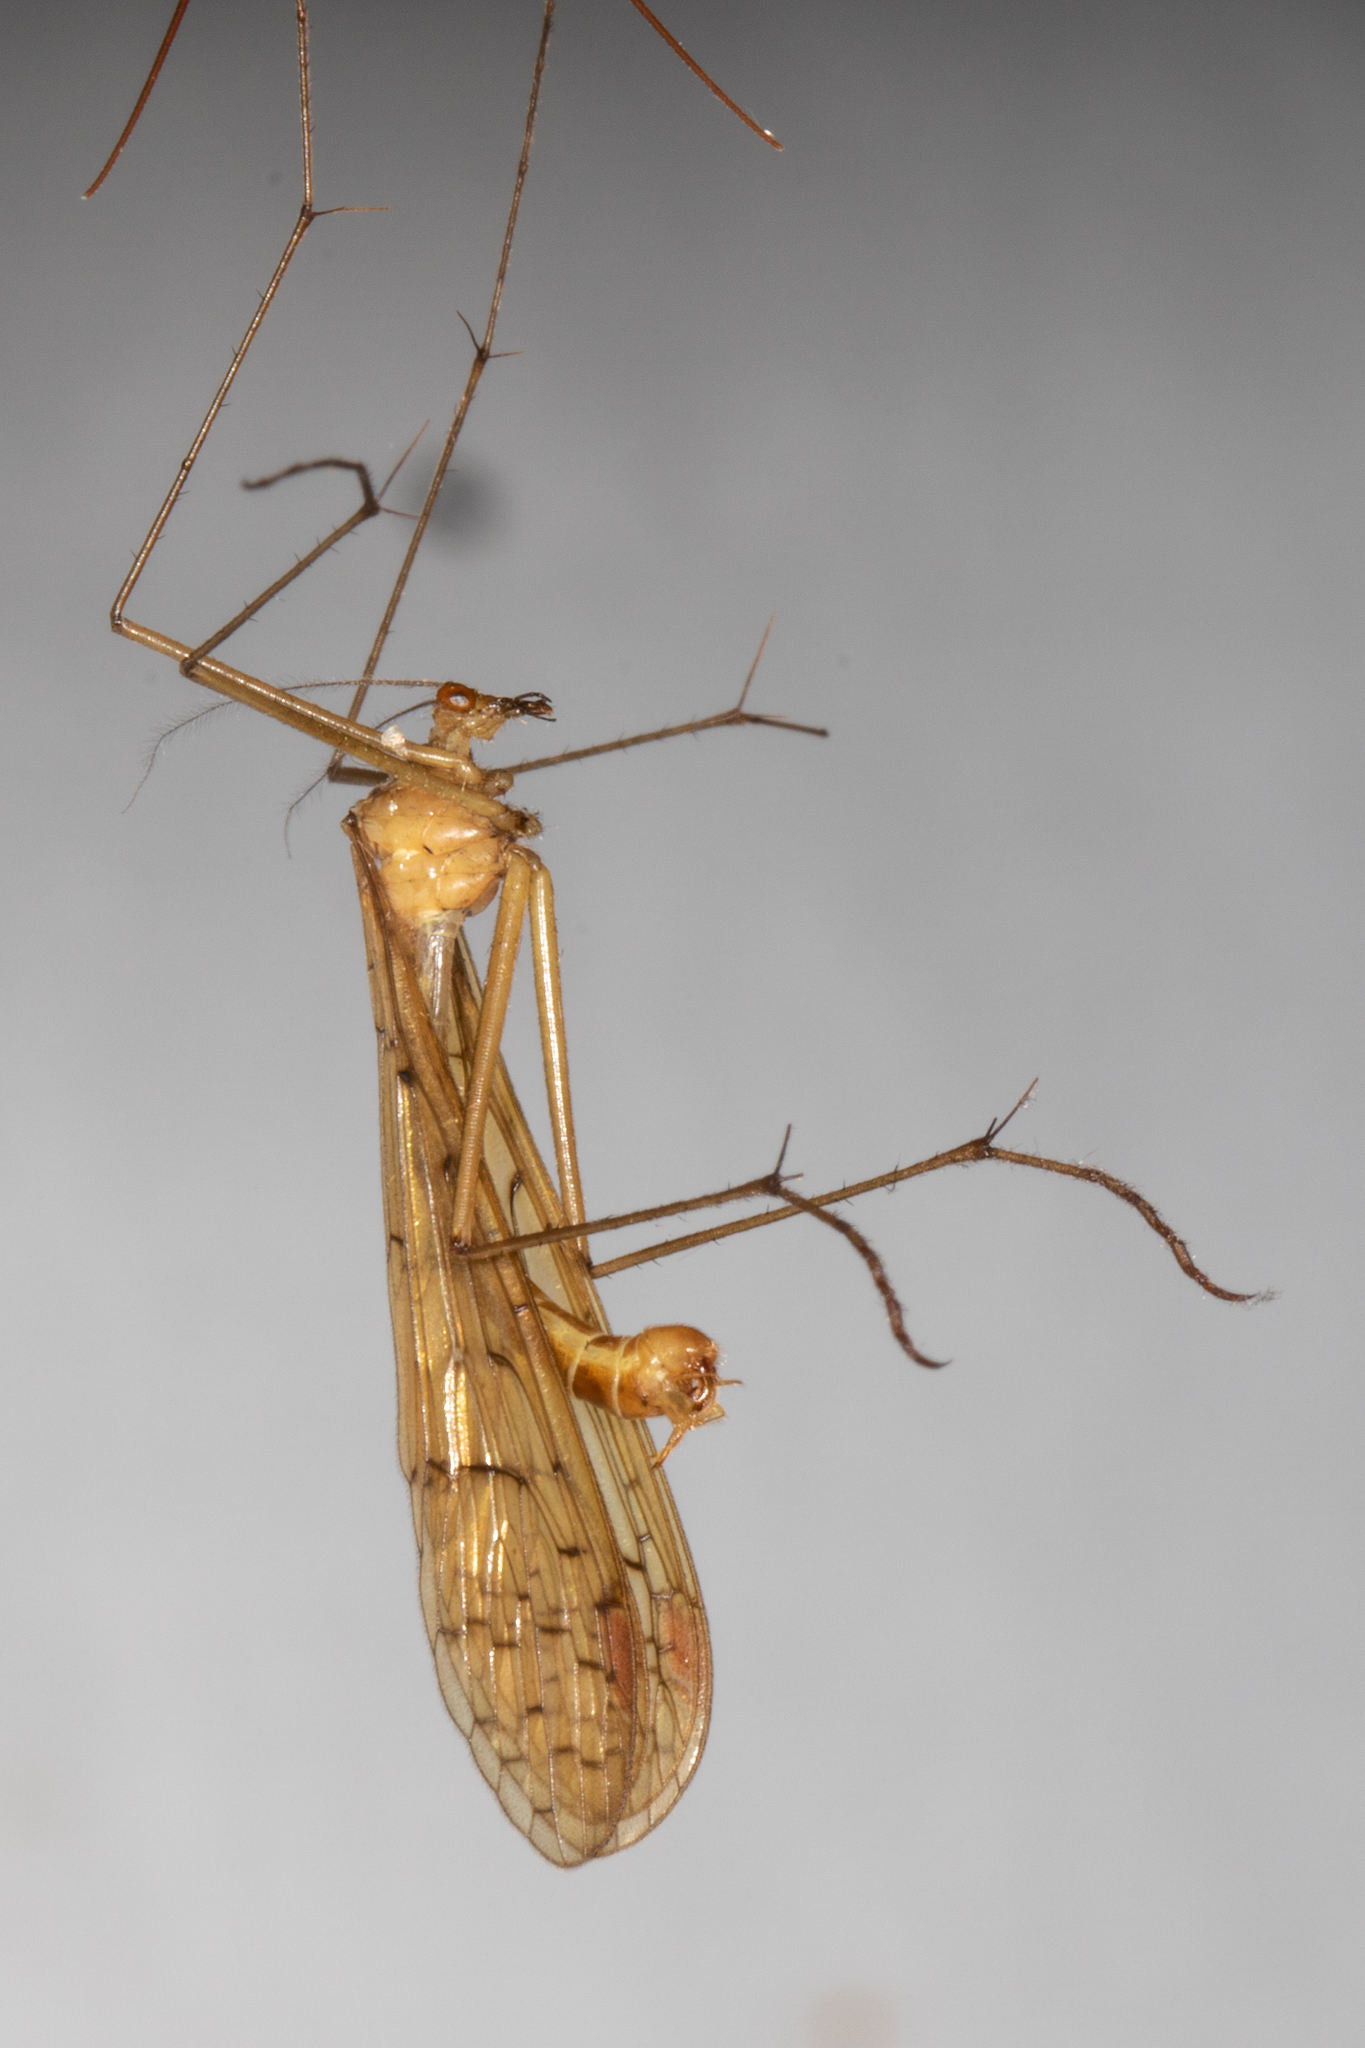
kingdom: Animalia
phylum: Arthropoda
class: Insecta
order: Mecoptera
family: Bittacidae
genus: Bittacus
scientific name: Bittacus pilicornis
